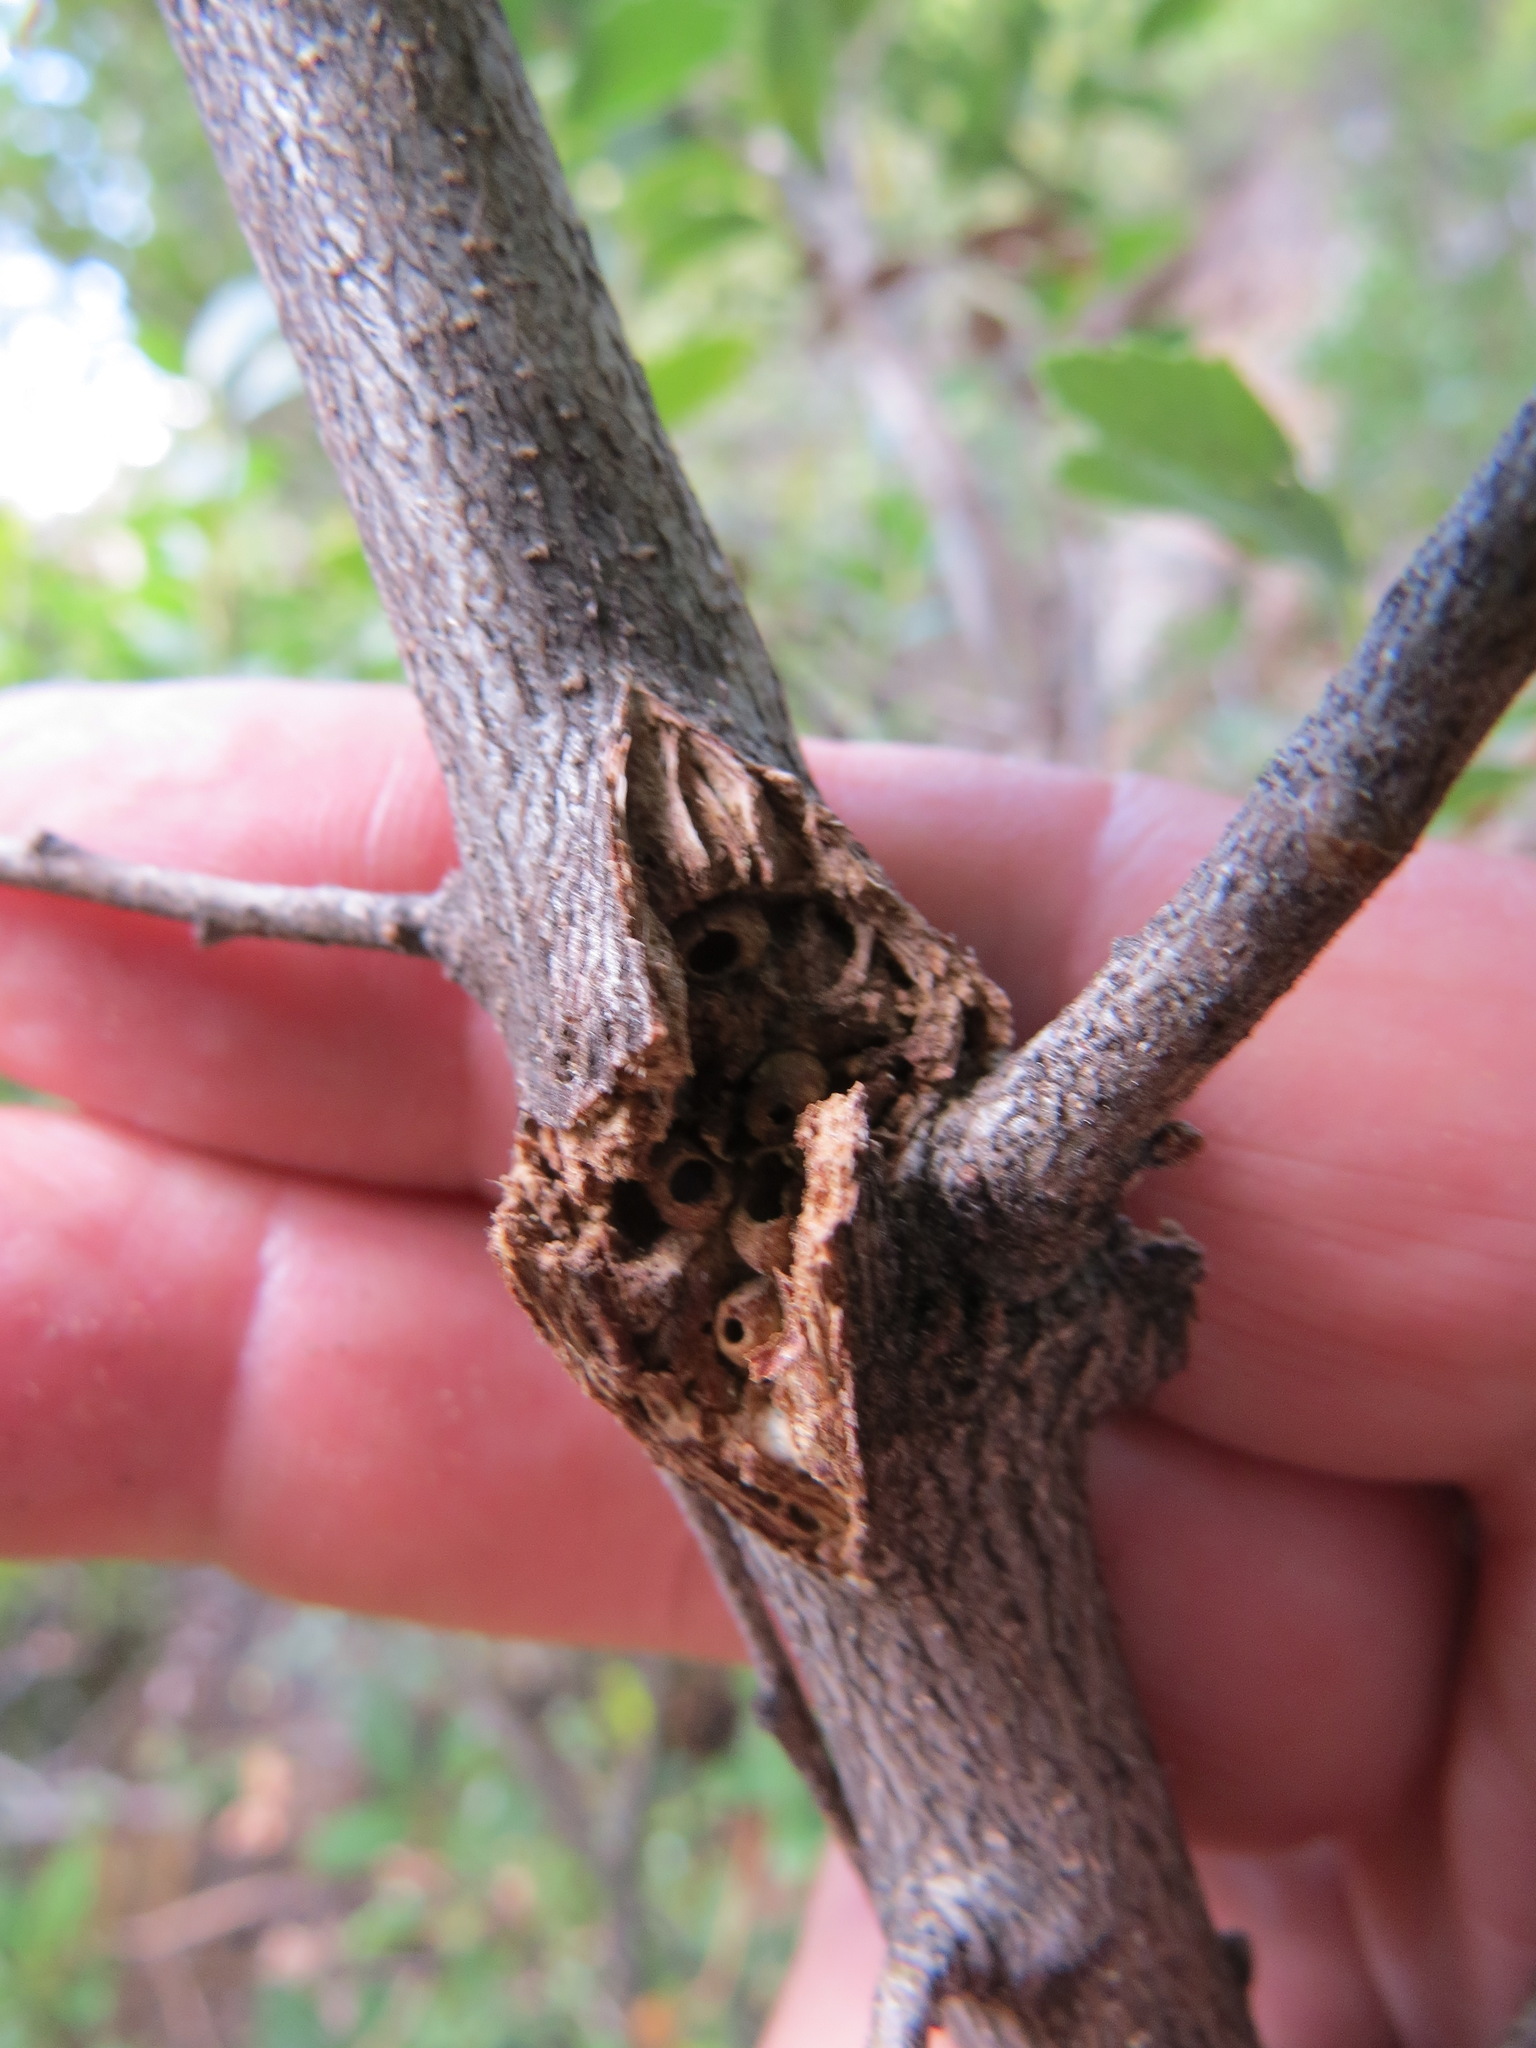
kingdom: Animalia
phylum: Arthropoda
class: Insecta
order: Hymenoptera
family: Cynipidae
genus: Dryocosmus
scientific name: Dryocosmus
